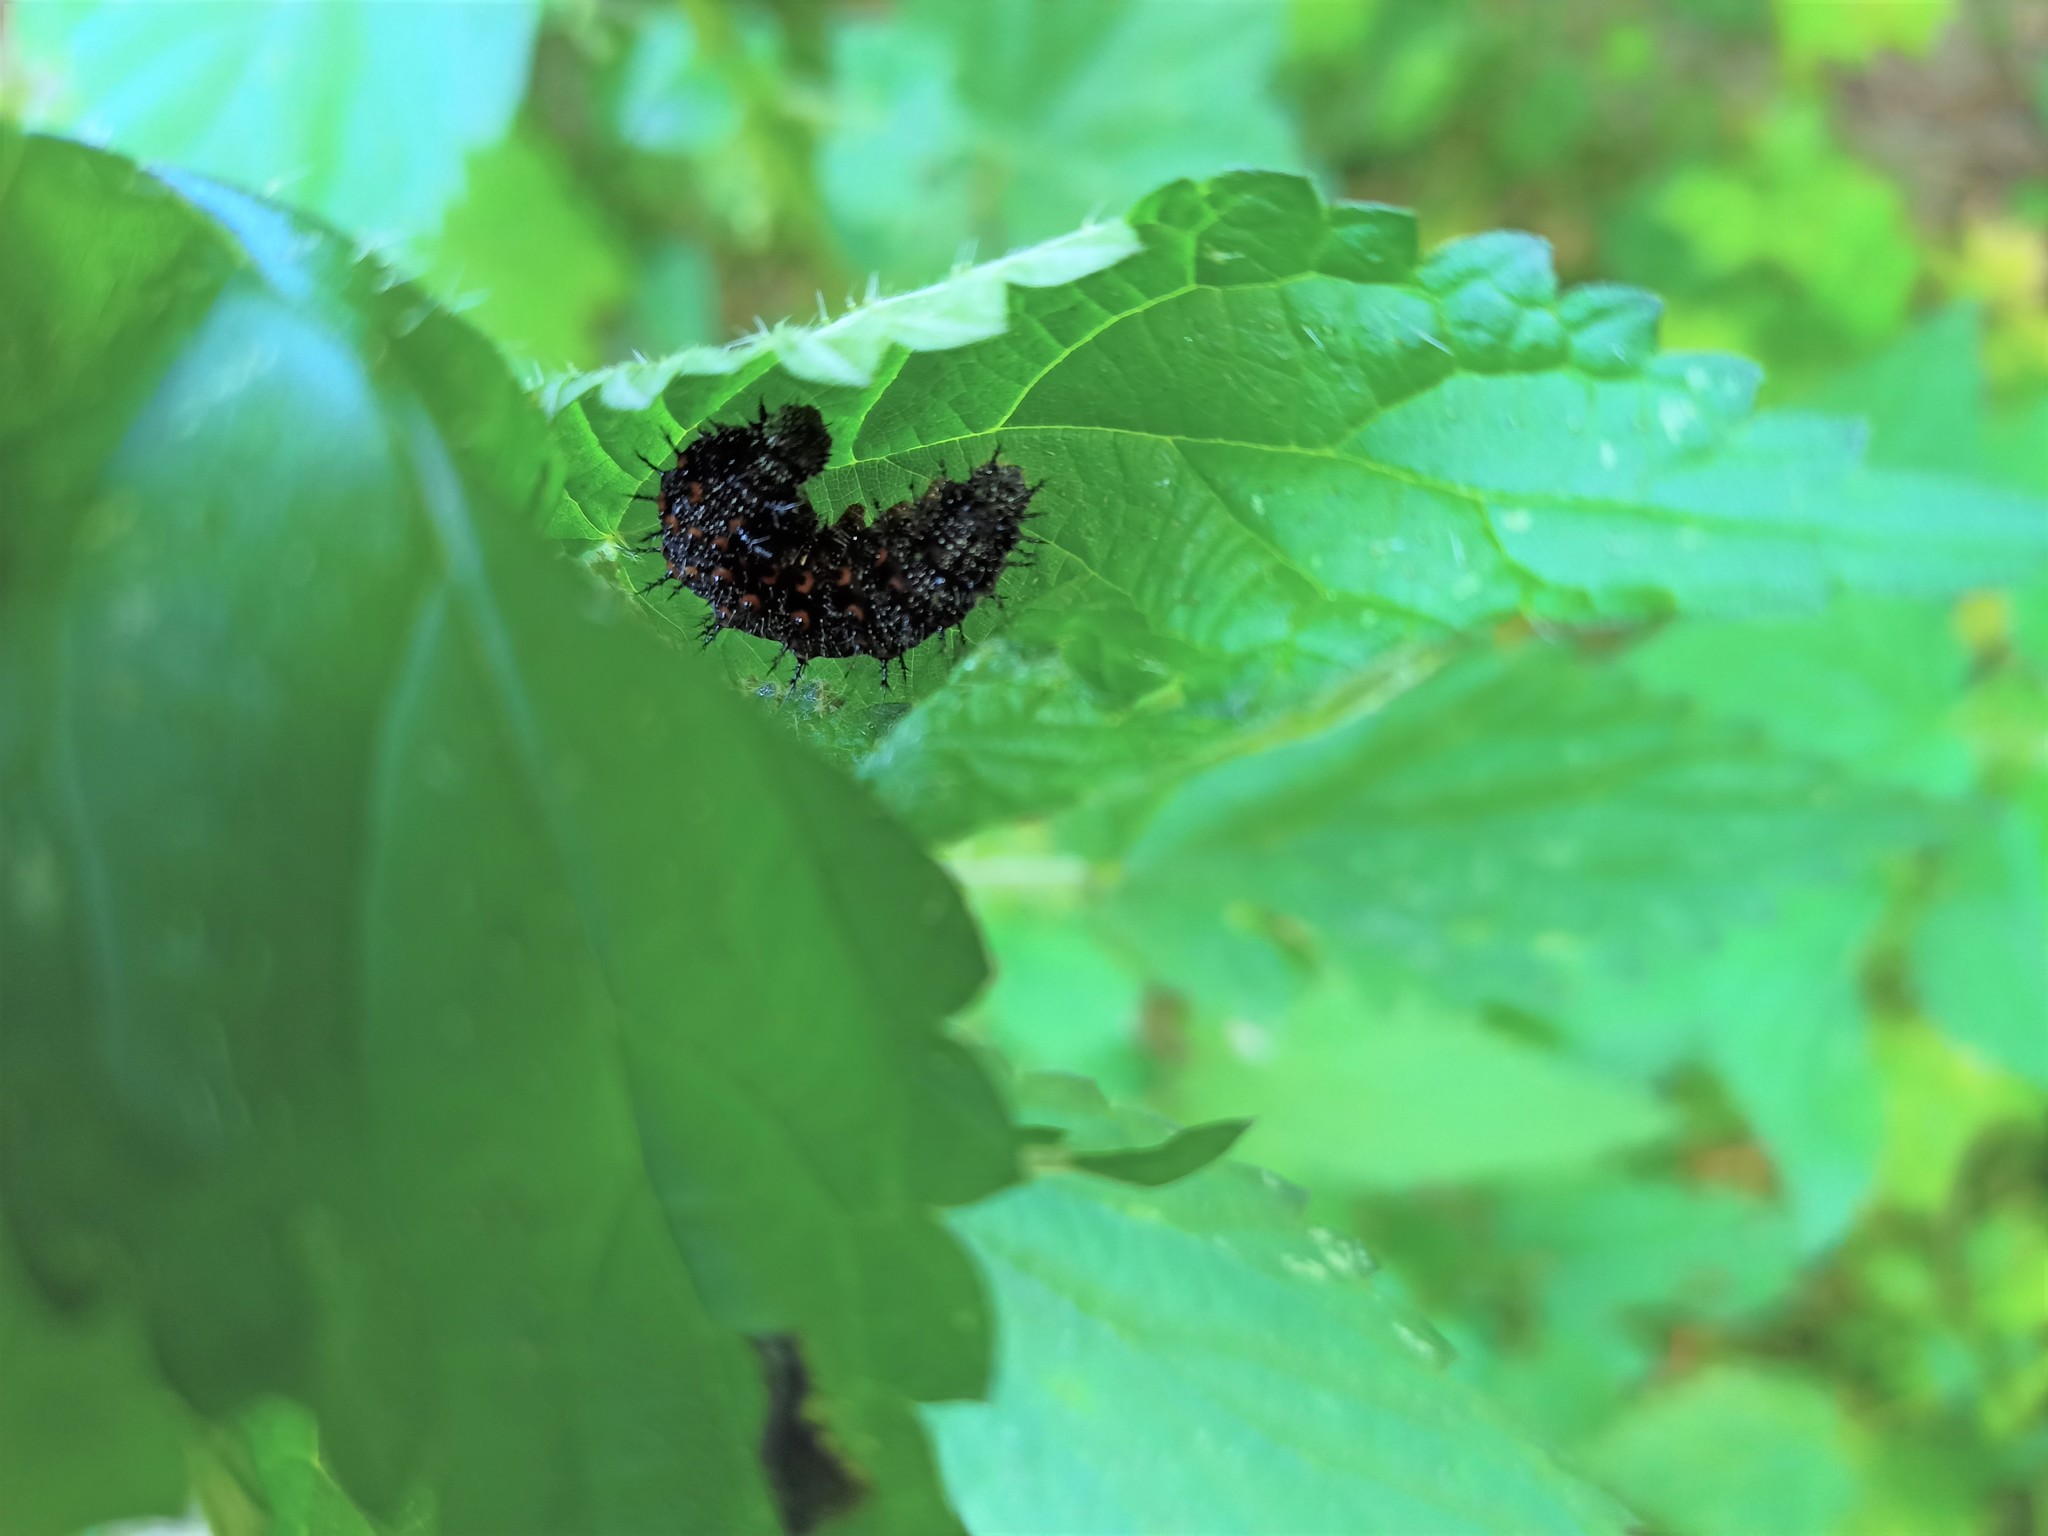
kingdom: Animalia
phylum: Arthropoda
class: Insecta
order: Lepidoptera
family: Nymphalidae
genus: Vanessa
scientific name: Vanessa atalanta
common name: Red admiral
